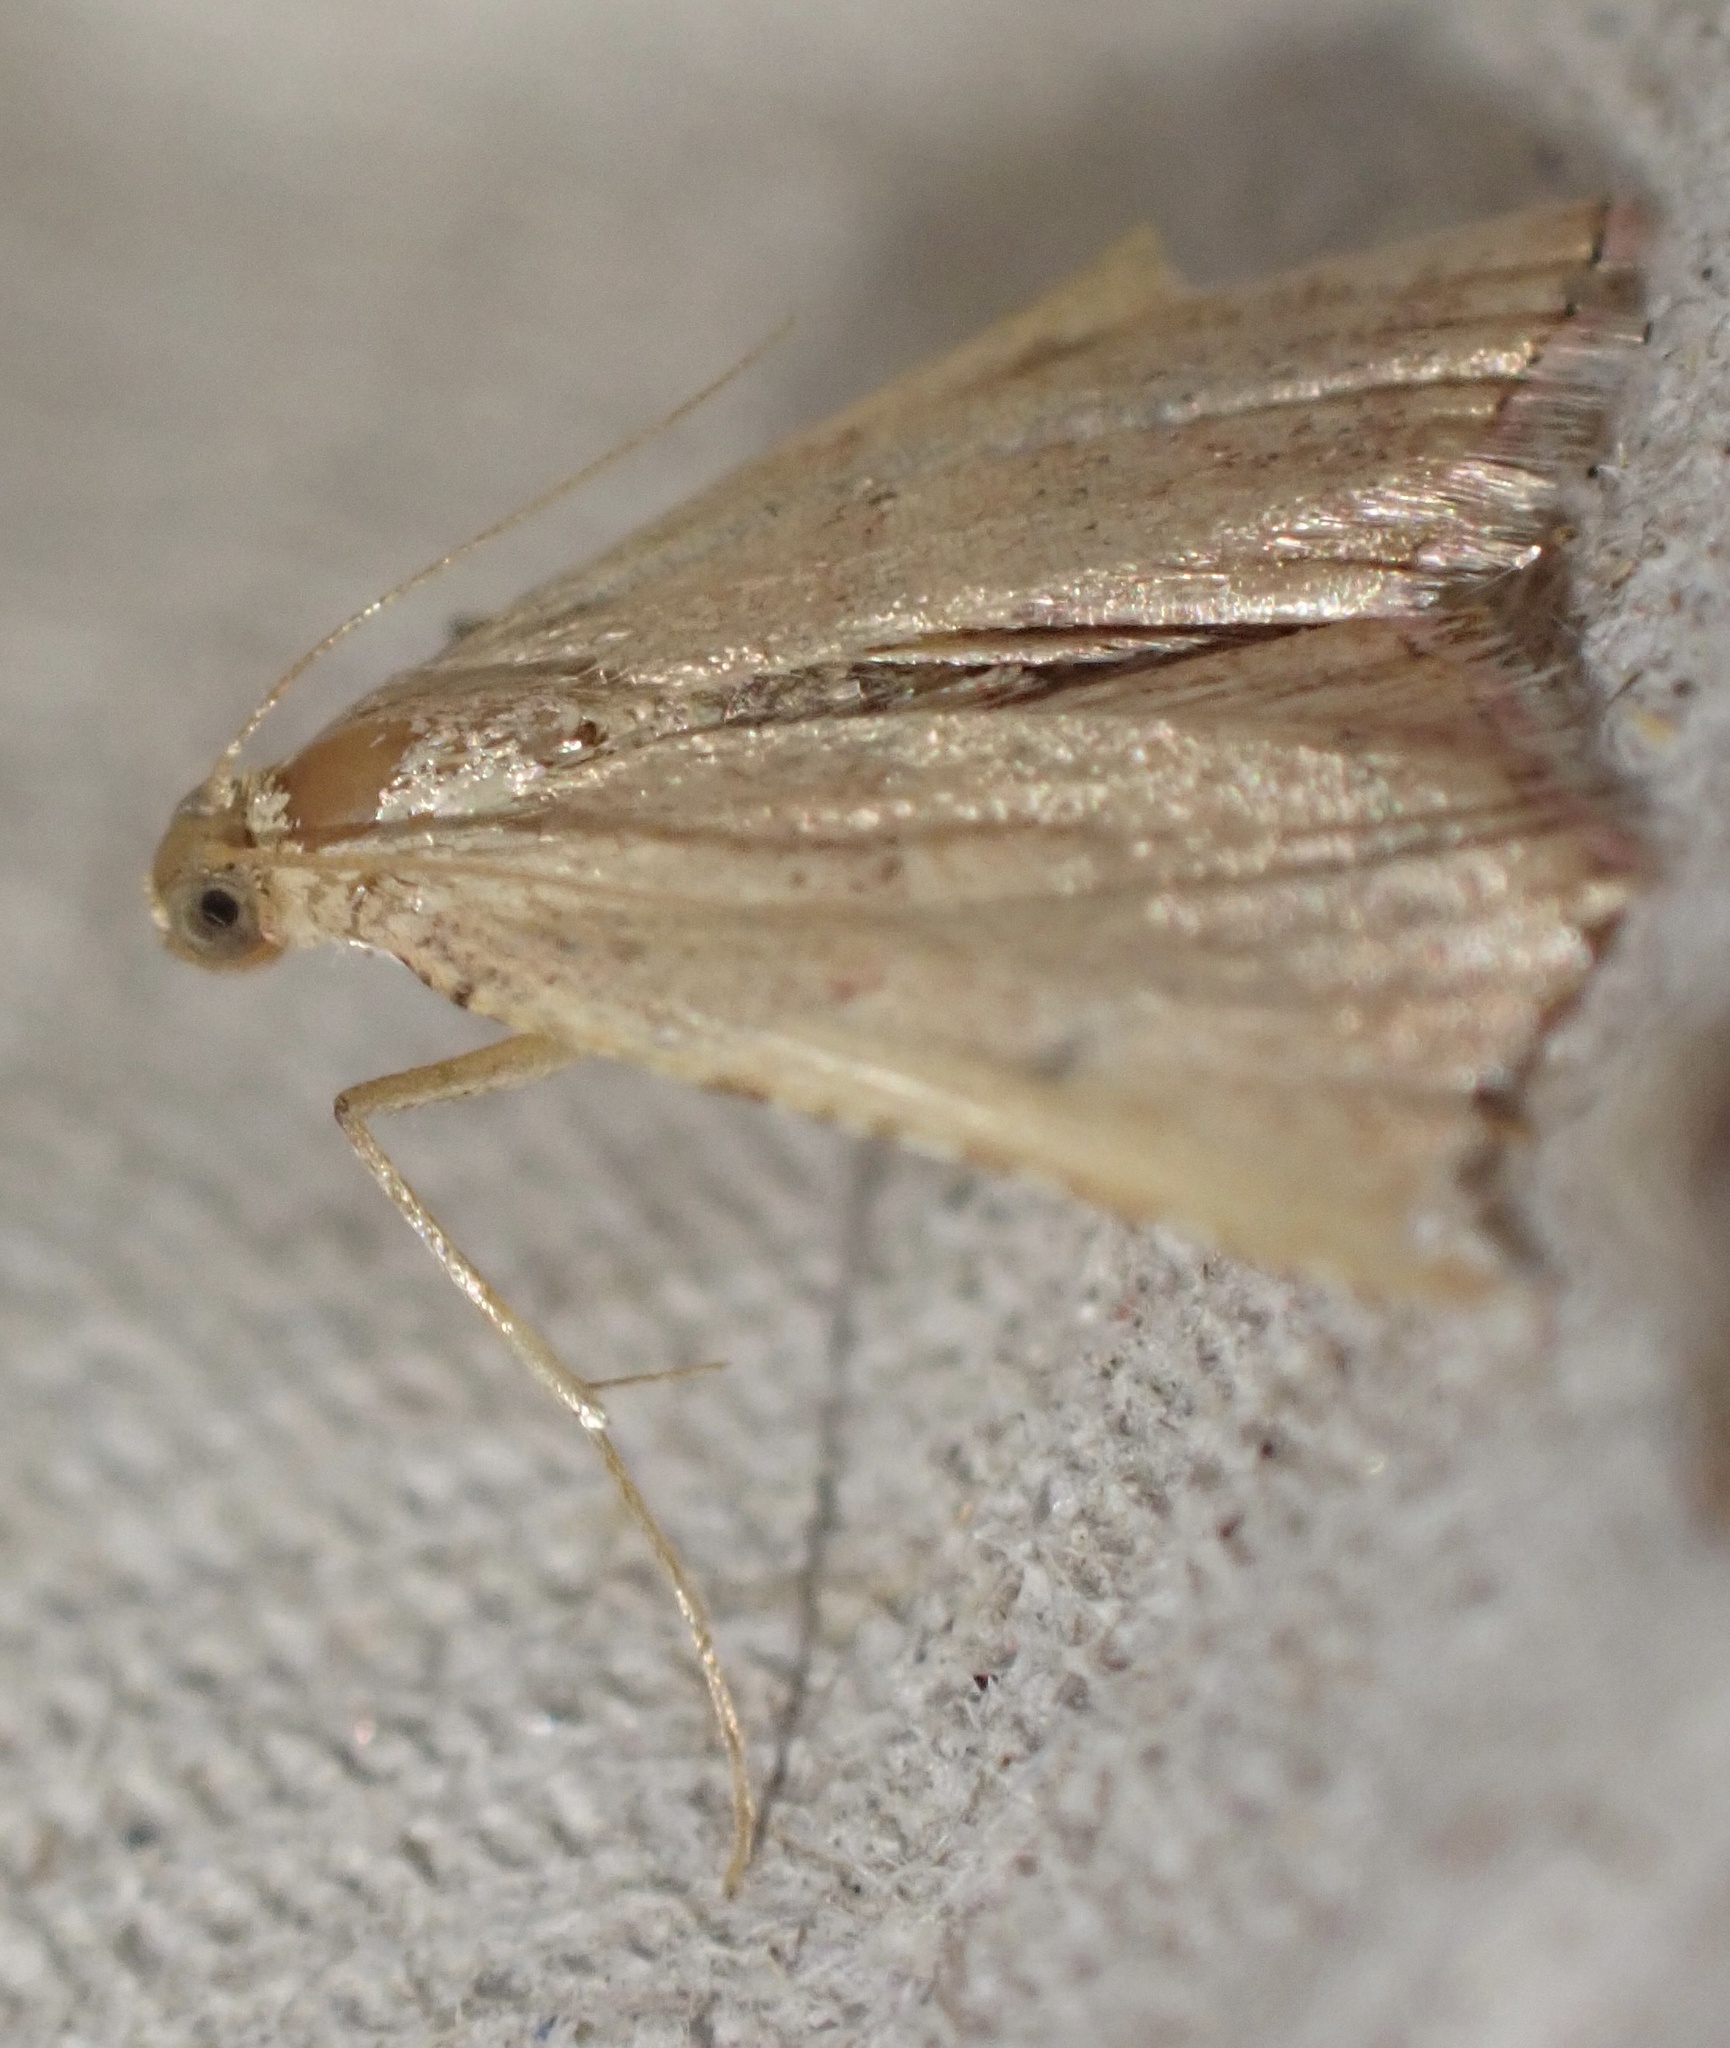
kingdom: Animalia
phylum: Arthropoda
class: Insecta
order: Lepidoptera
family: Pyralidae
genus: Endotricha
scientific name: Endotricha flammealis
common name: Rosy tabby
